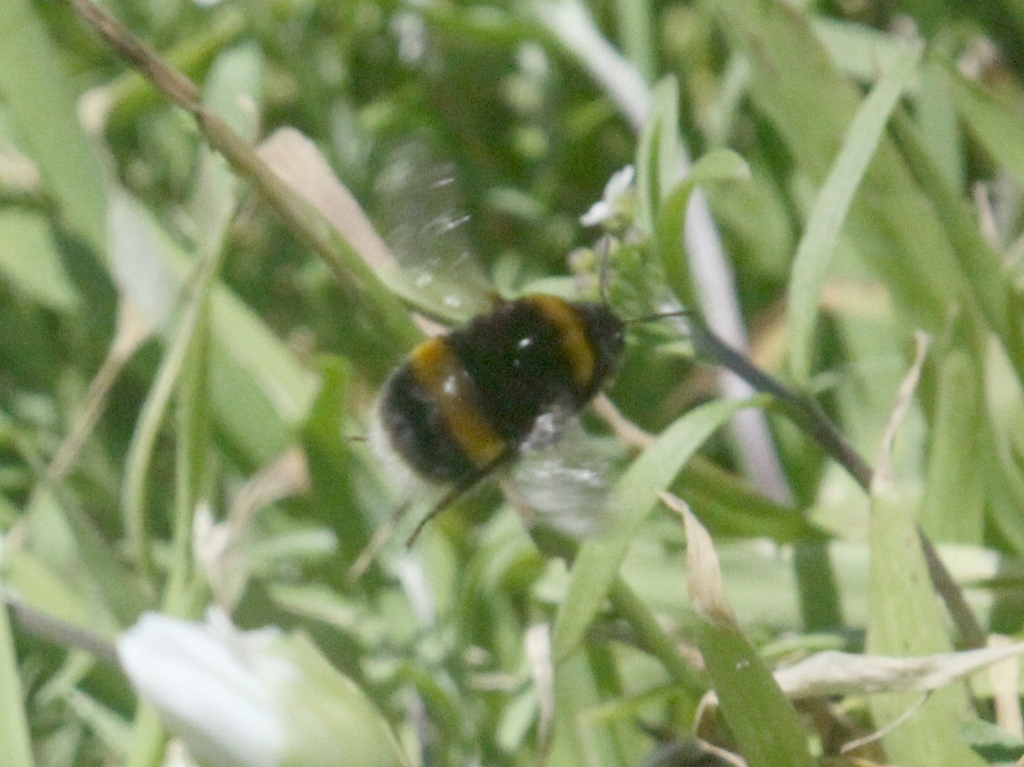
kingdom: Animalia
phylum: Arthropoda
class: Insecta
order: Hymenoptera
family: Apidae
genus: Bombus
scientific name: Bombus terrestris
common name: Buff-tailed bumblebee
